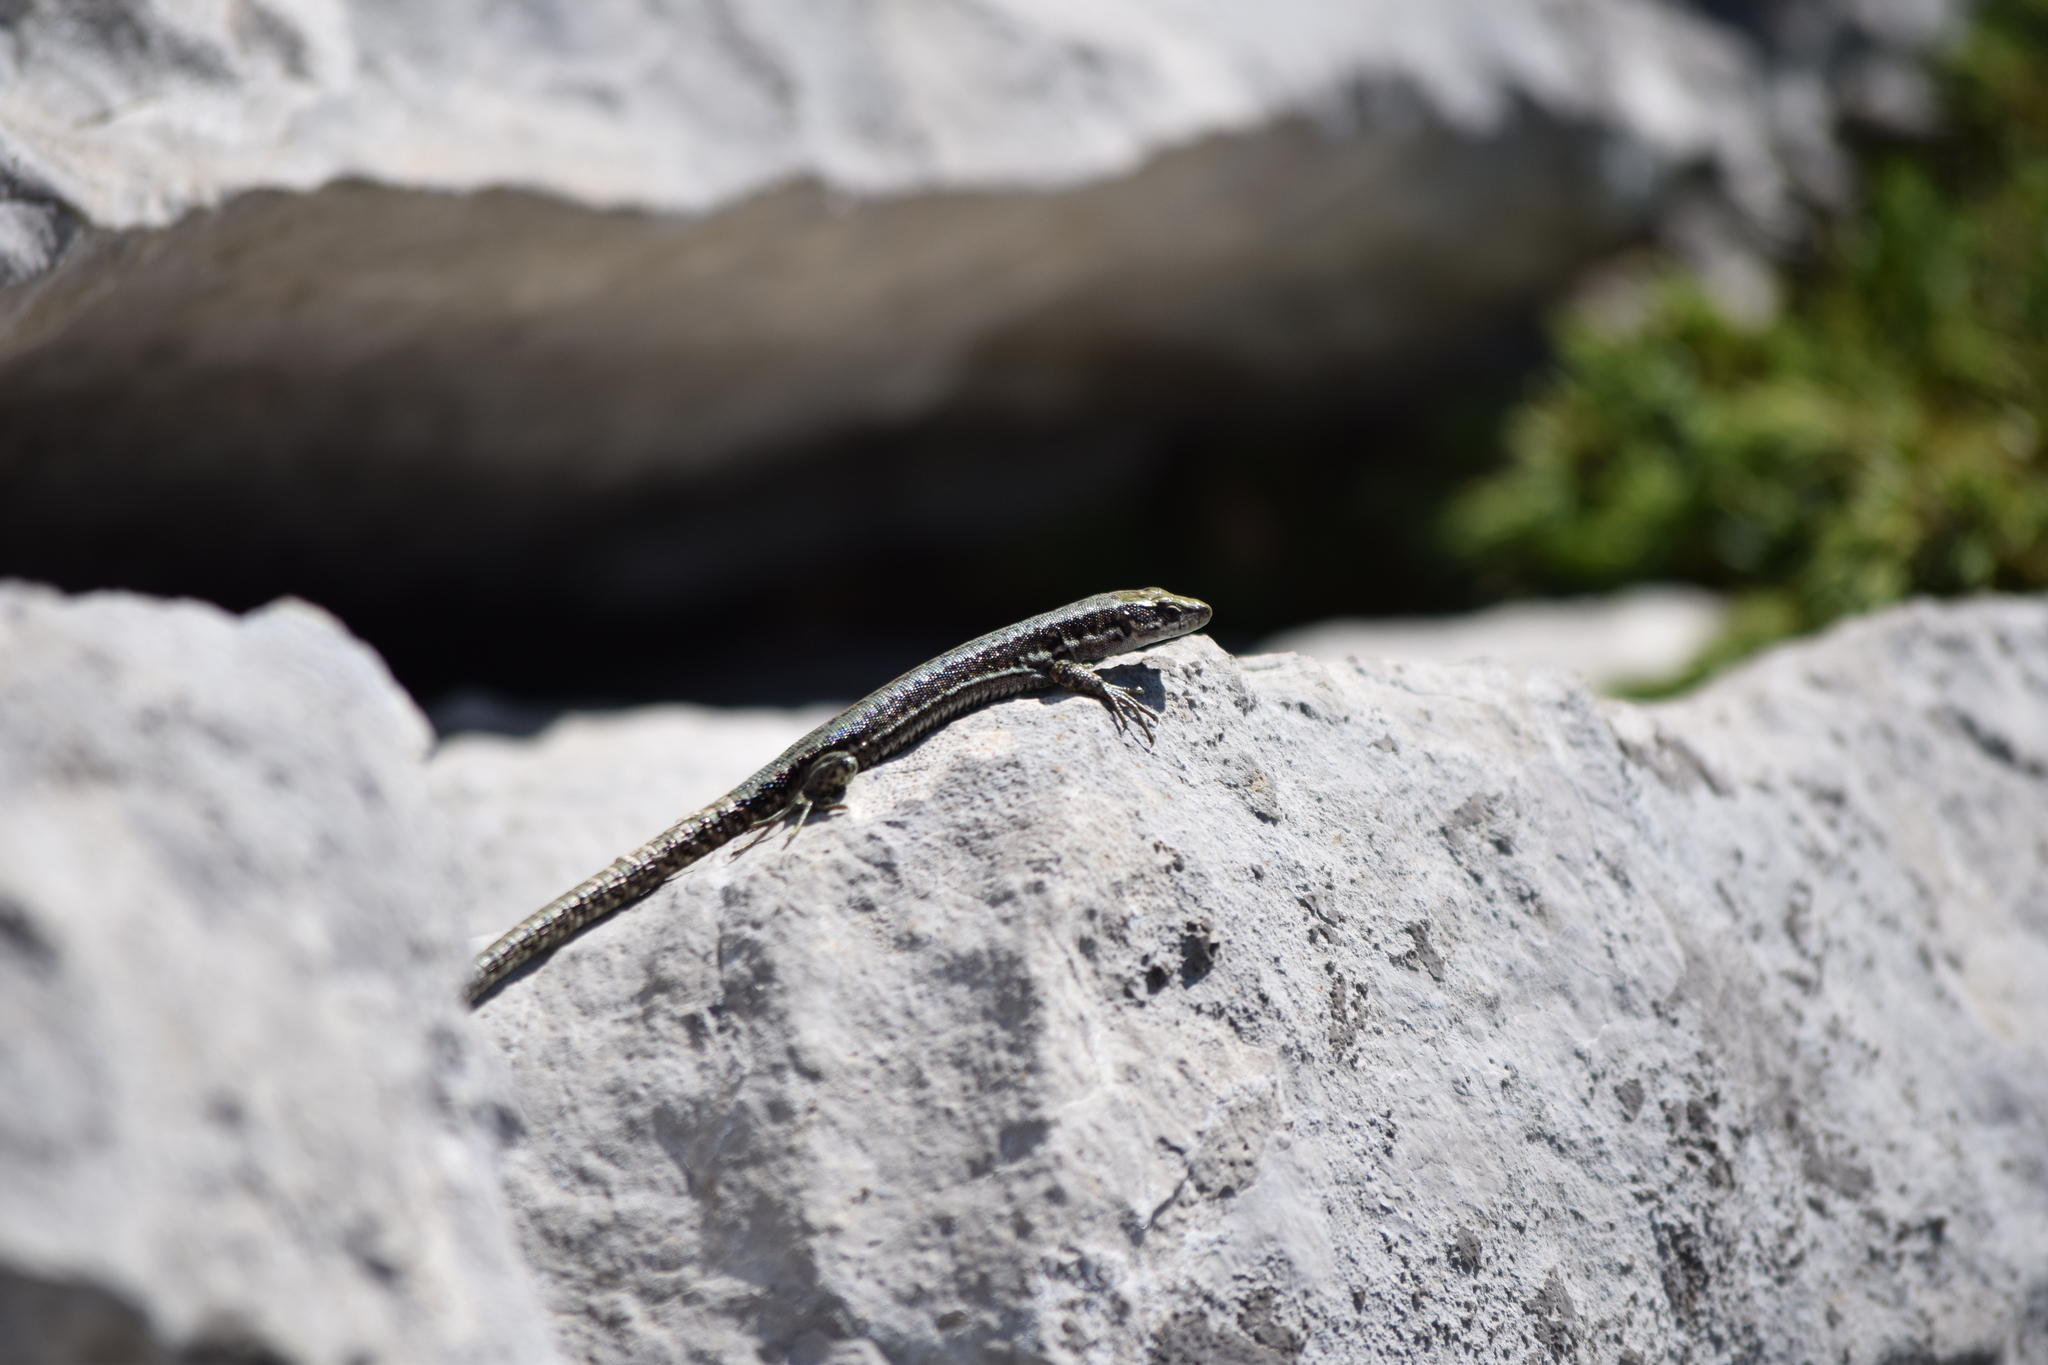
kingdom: Animalia
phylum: Chordata
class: Squamata
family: Lacertidae
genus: Iberolacerta
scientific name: Iberolacerta horvathi
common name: Horvath's rock lizard
